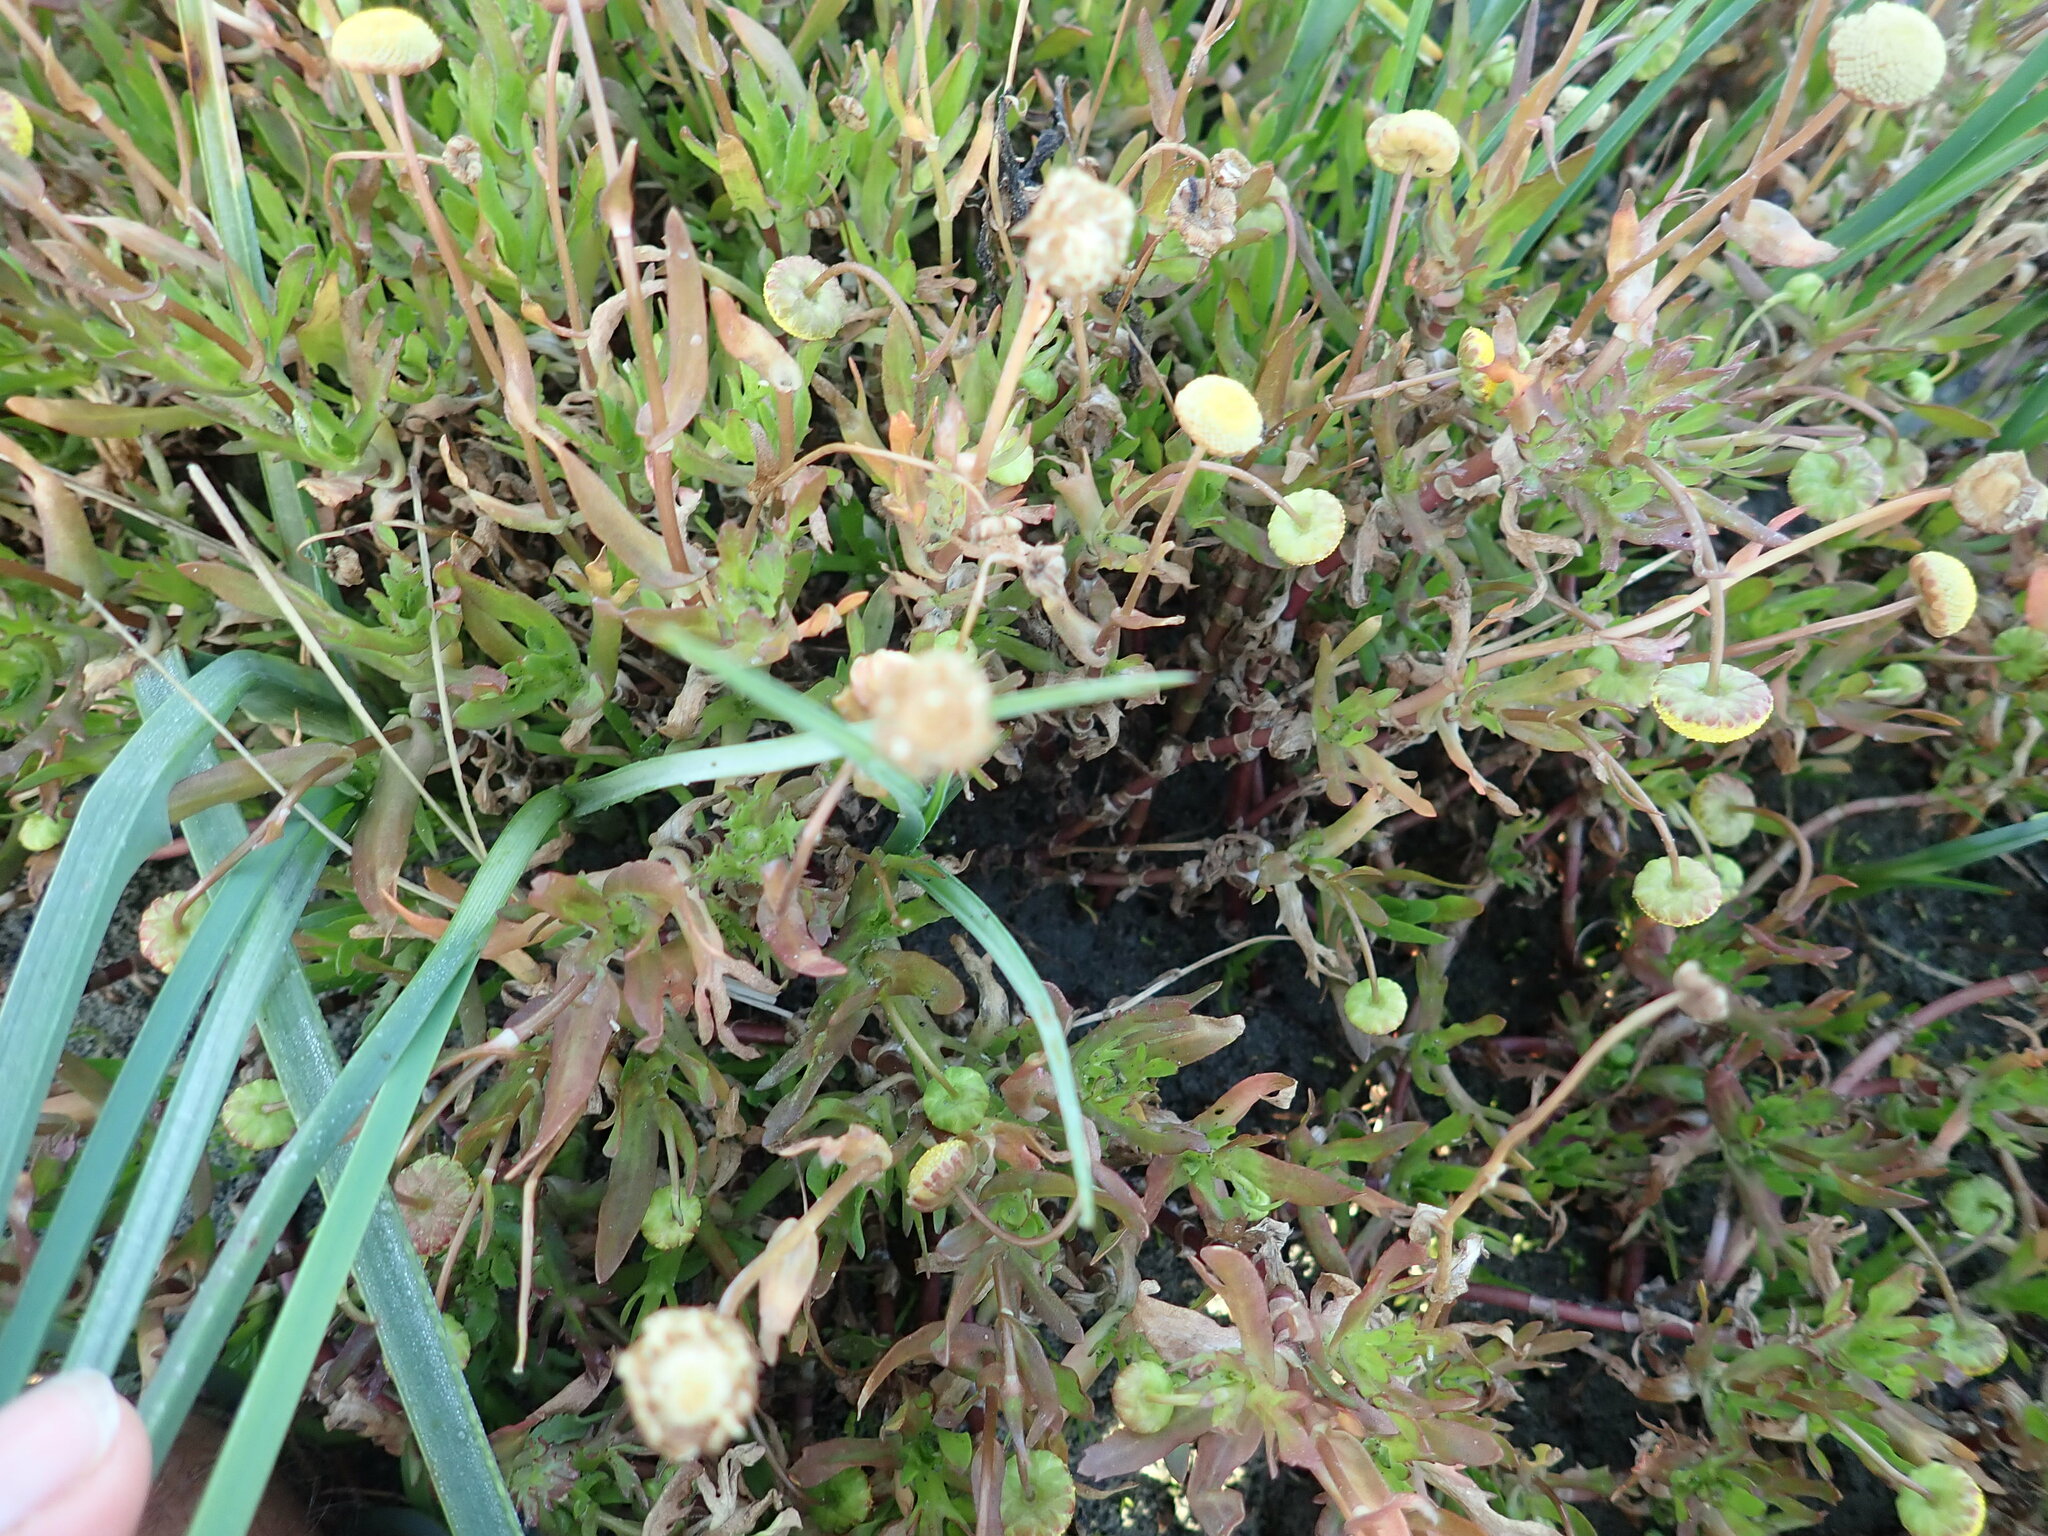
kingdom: Plantae
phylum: Tracheophyta
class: Magnoliopsida
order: Asterales
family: Asteraceae
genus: Cotula
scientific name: Cotula coronopifolia
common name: Buttonweed
